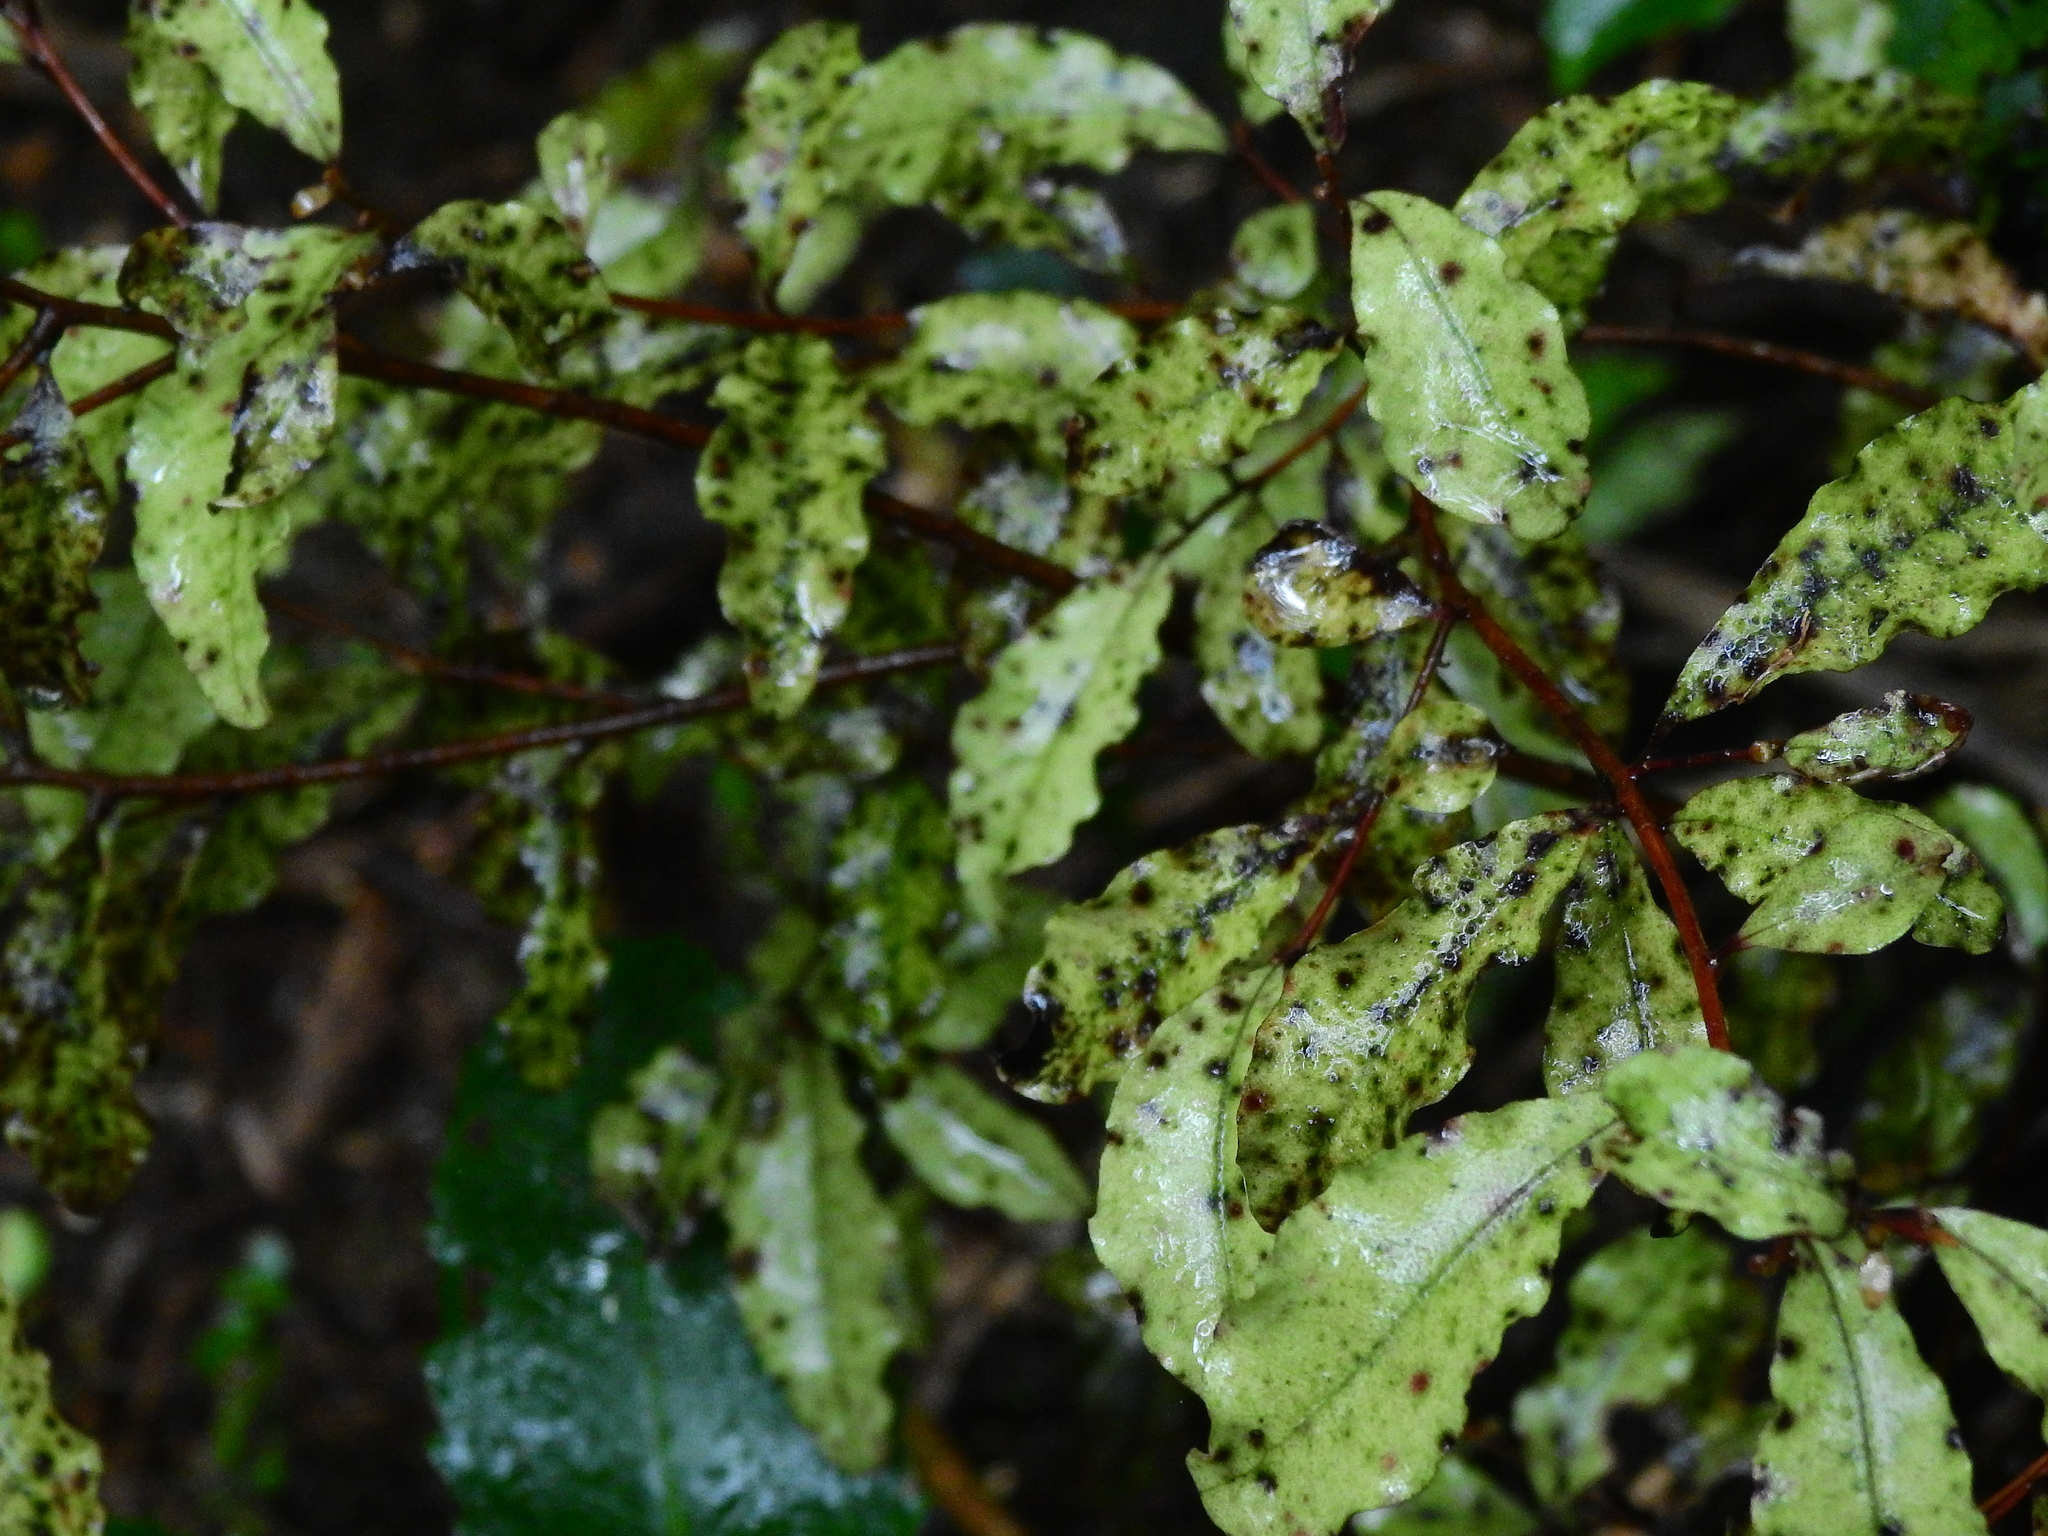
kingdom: Plantae
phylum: Tracheophyta
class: Magnoliopsida
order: Ericales
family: Primulaceae
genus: Myrsine
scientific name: Myrsine australis
